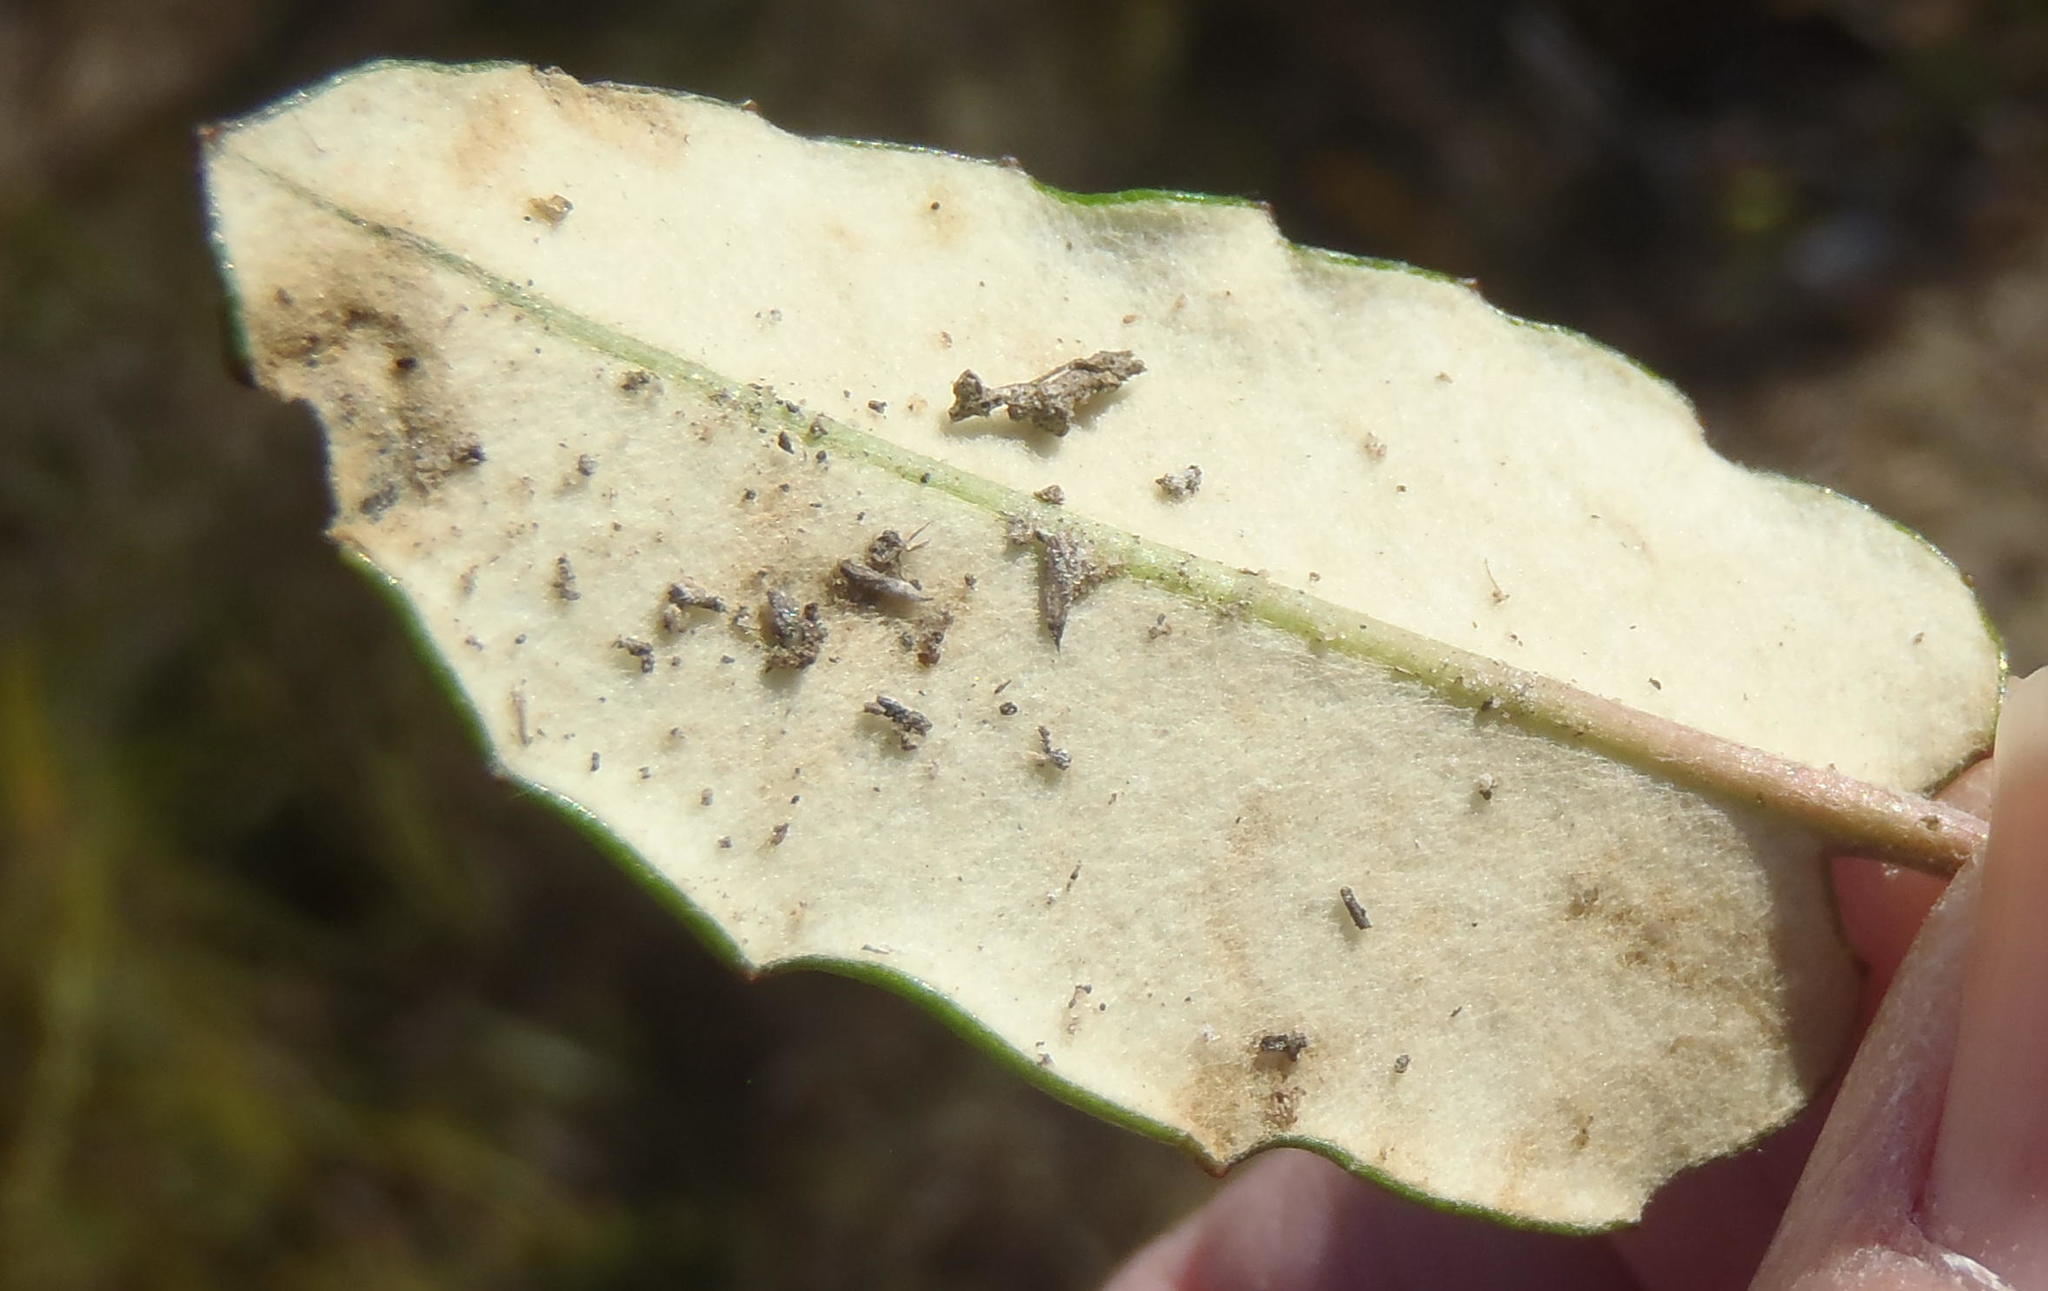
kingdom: Plantae
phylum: Tracheophyta
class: Magnoliopsida
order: Asterales
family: Asteraceae
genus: Gerbera
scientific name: Gerbera serrata
